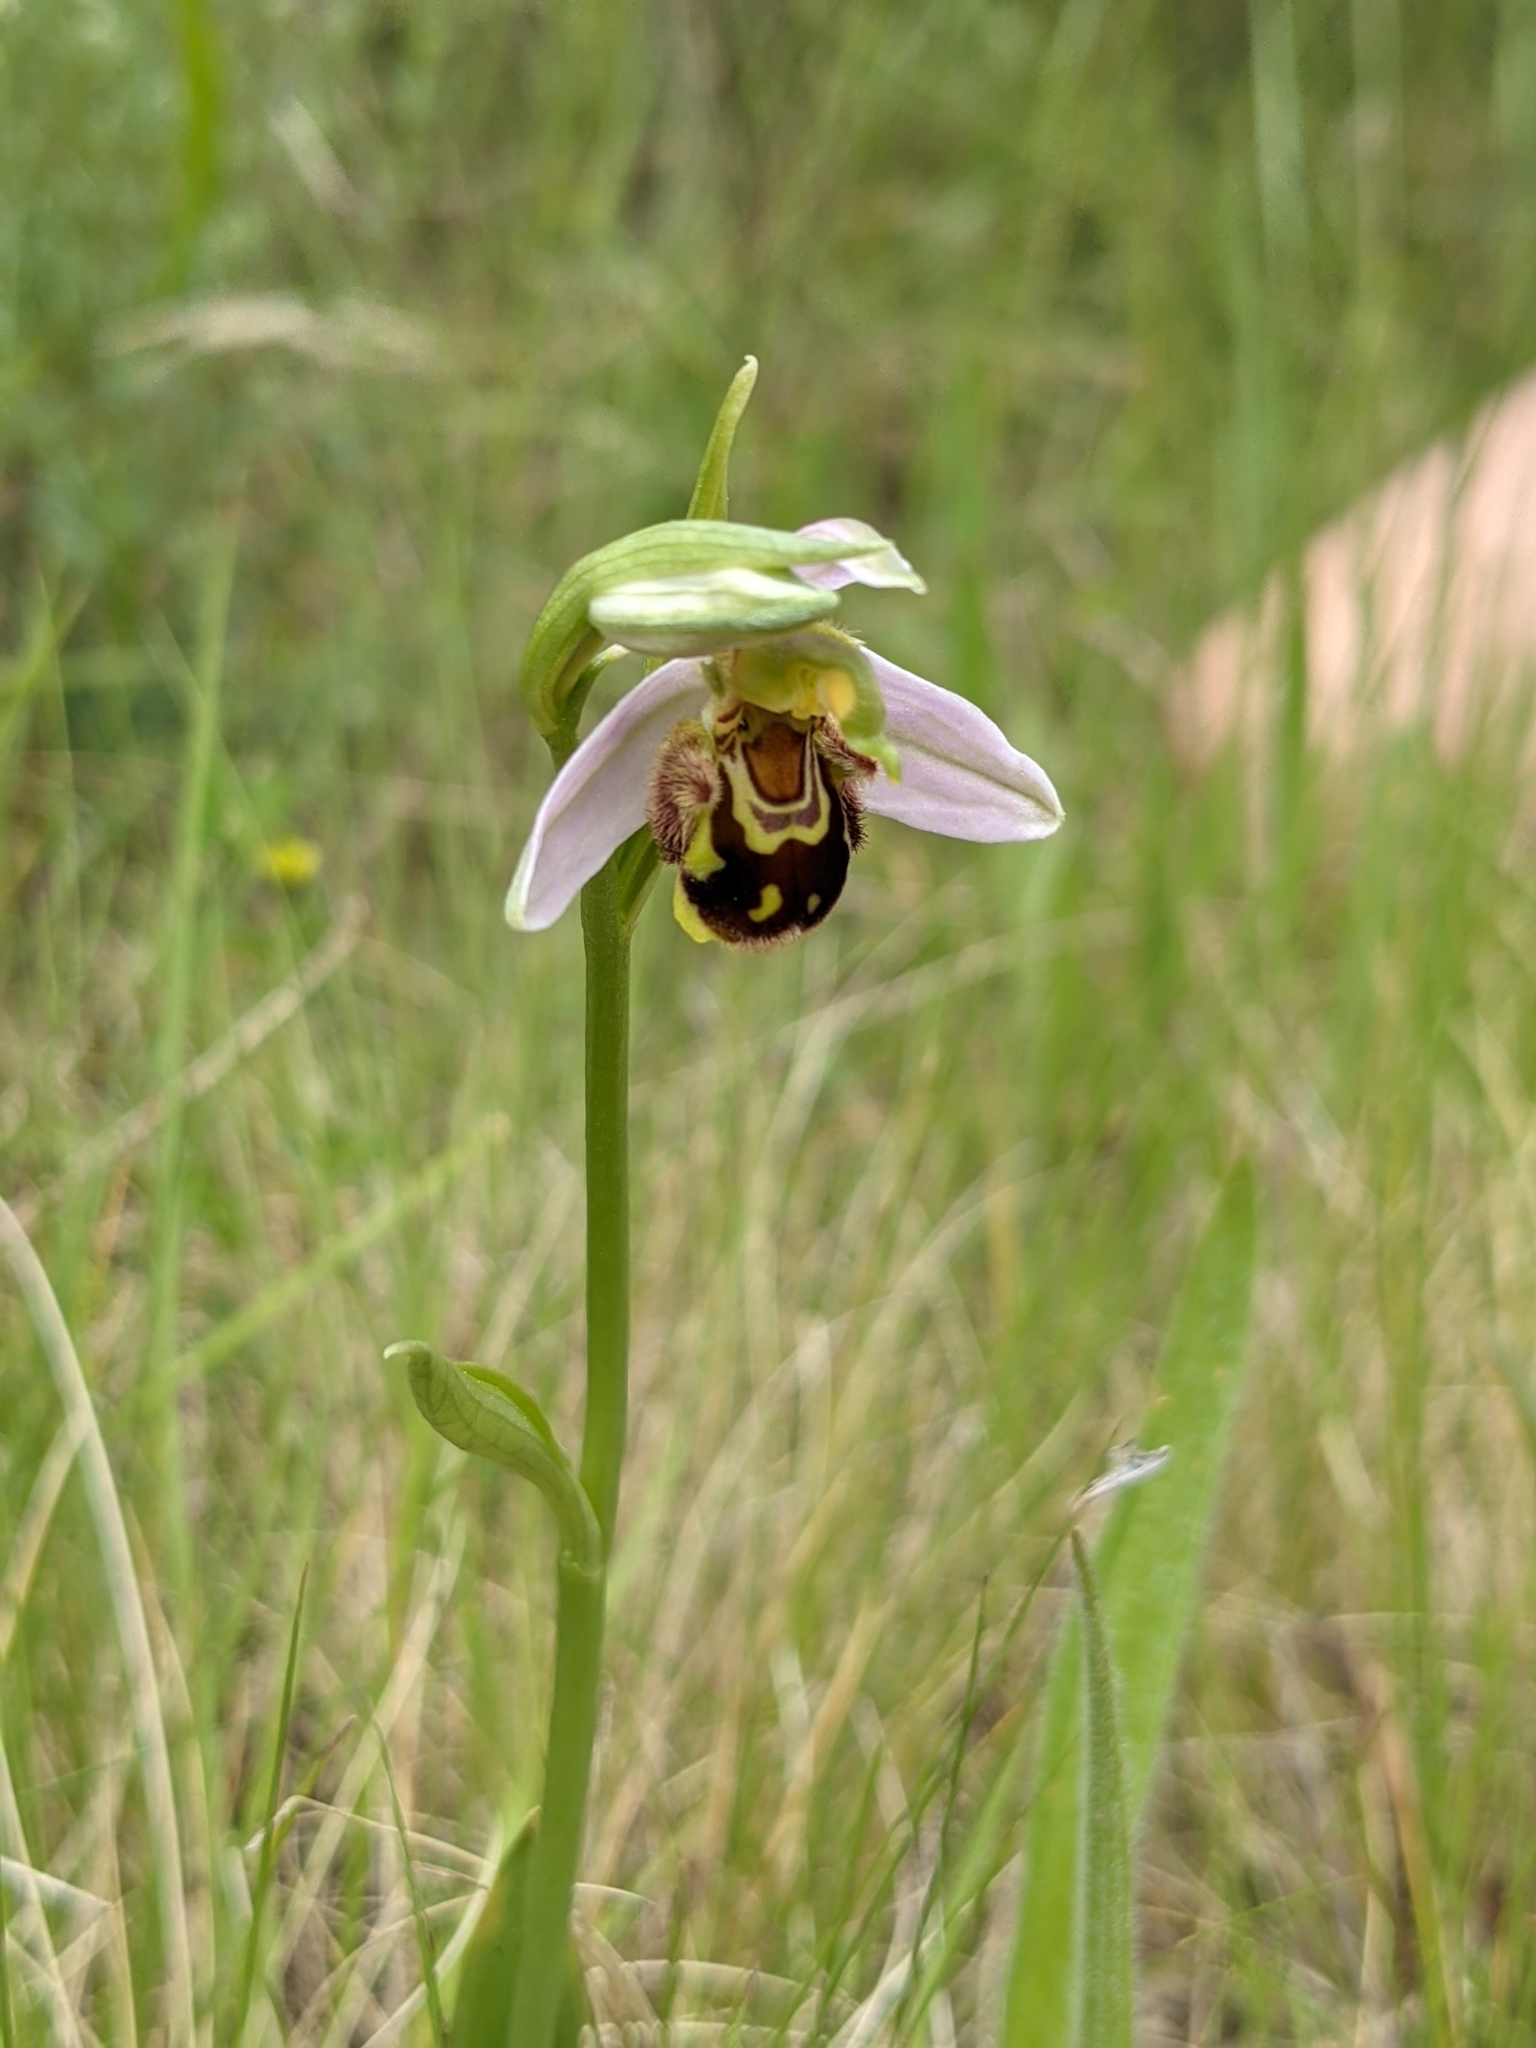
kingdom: Plantae
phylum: Tracheophyta
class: Liliopsida
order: Asparagales
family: Orchidaceae
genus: Ophrys
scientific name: Ophrys apifera
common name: Bee orchid
